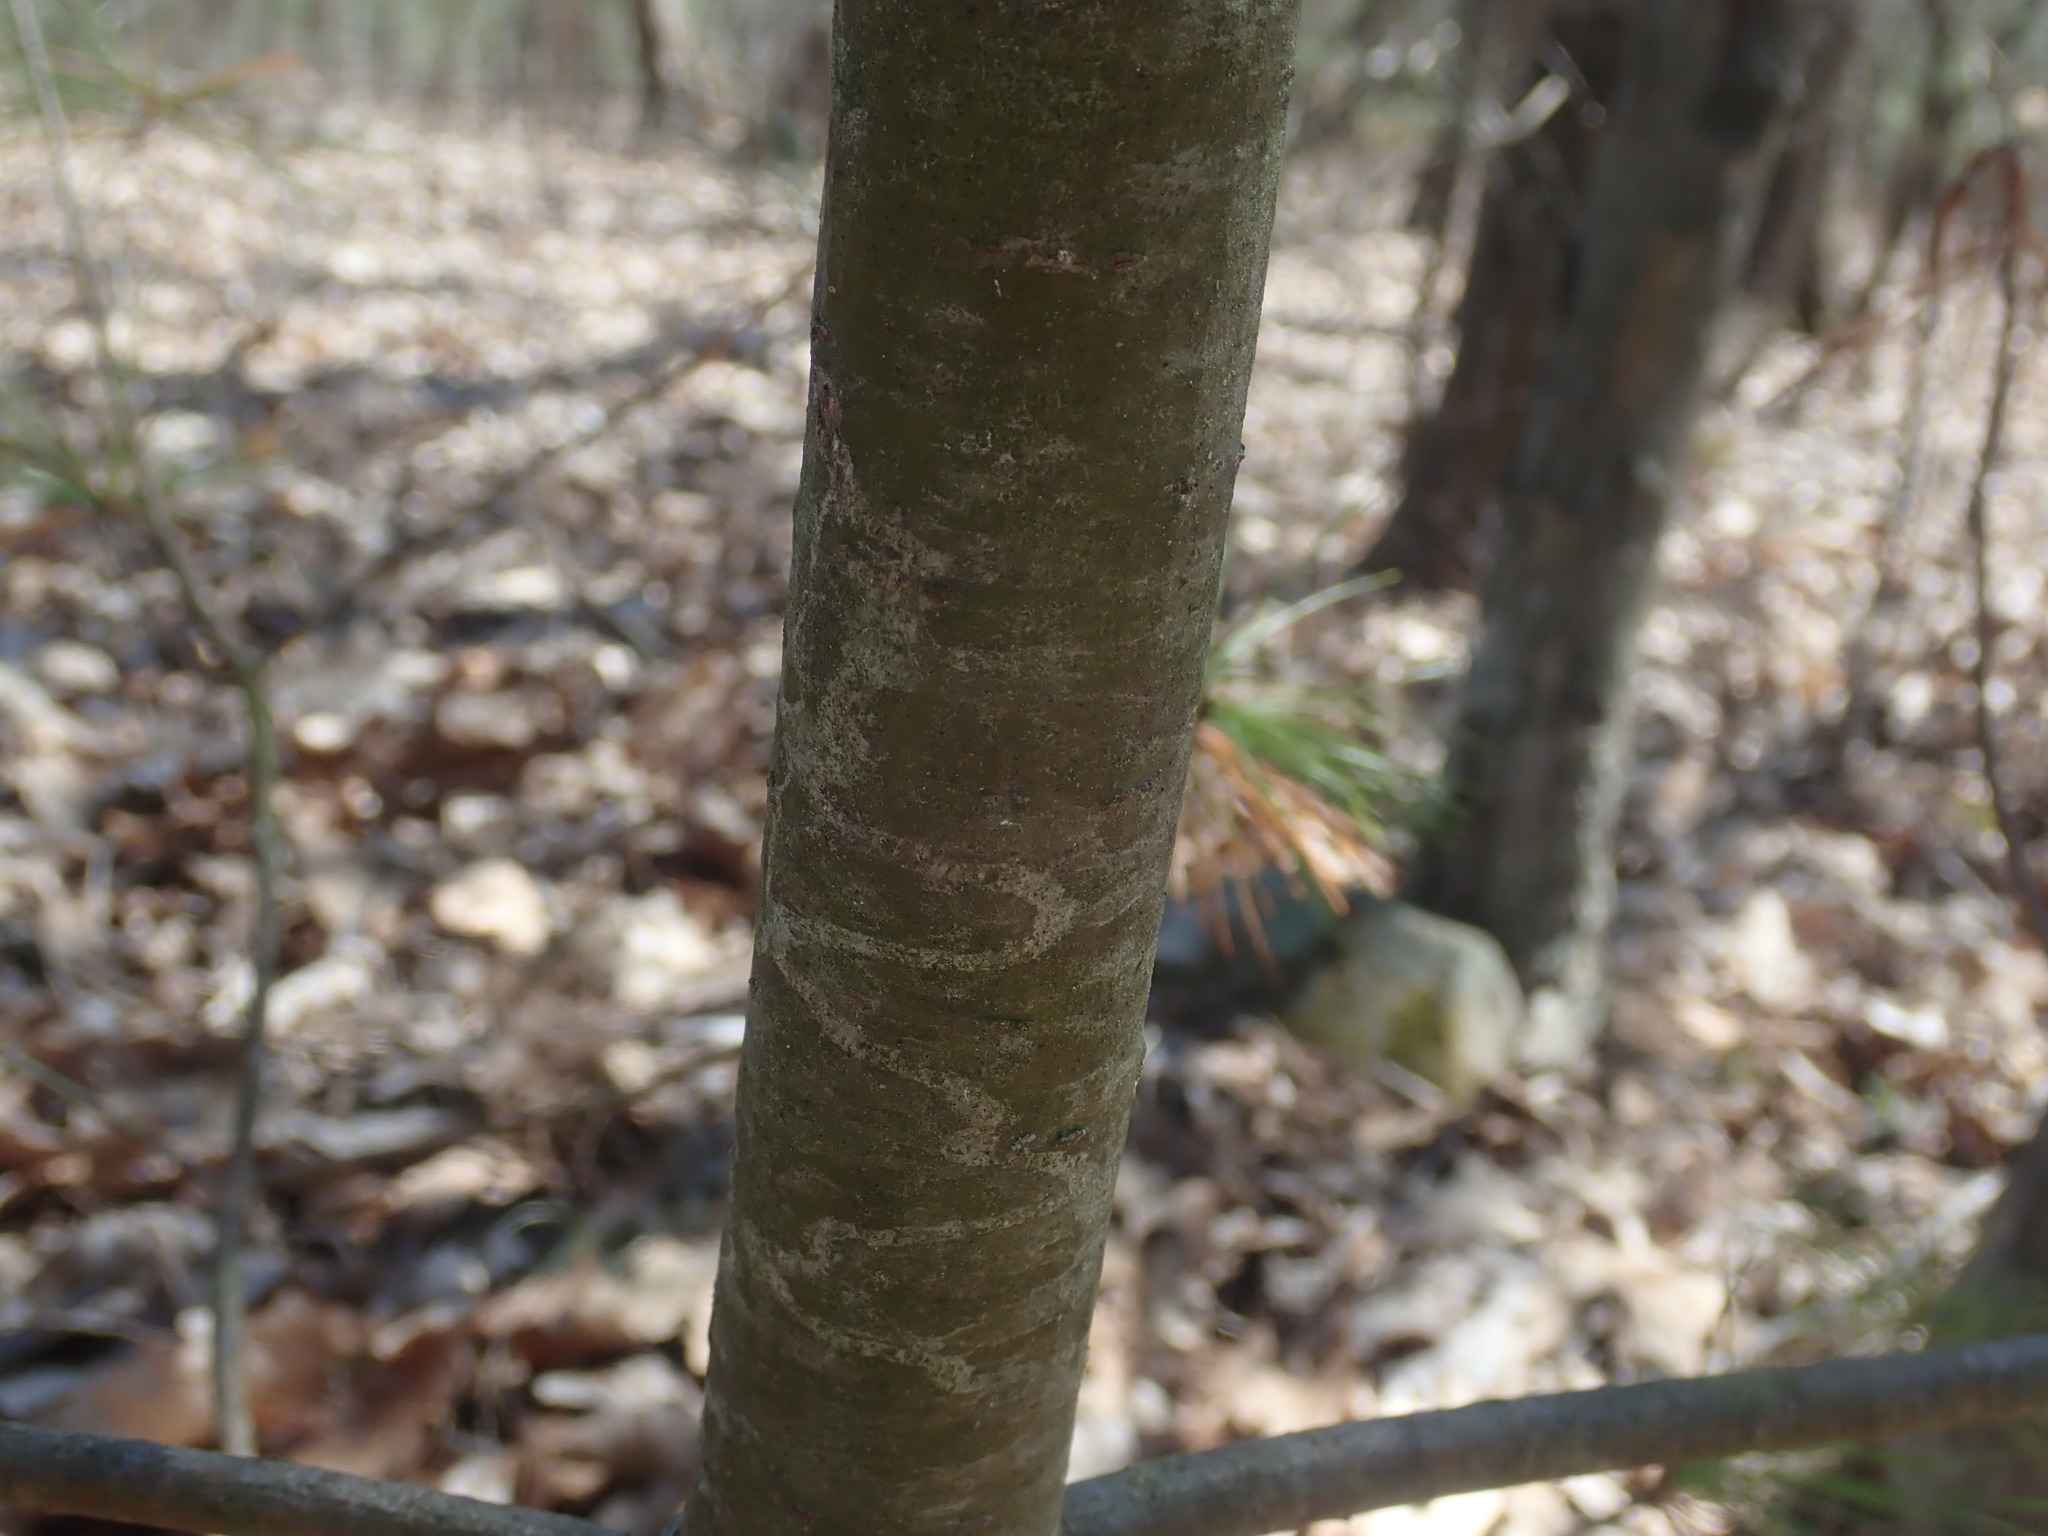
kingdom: Animalia
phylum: Arthropoda
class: Insecta
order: Lepidoptera
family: Gracillariidae
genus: Marmara
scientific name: Marmara fasciella
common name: White pine barkminer moth
